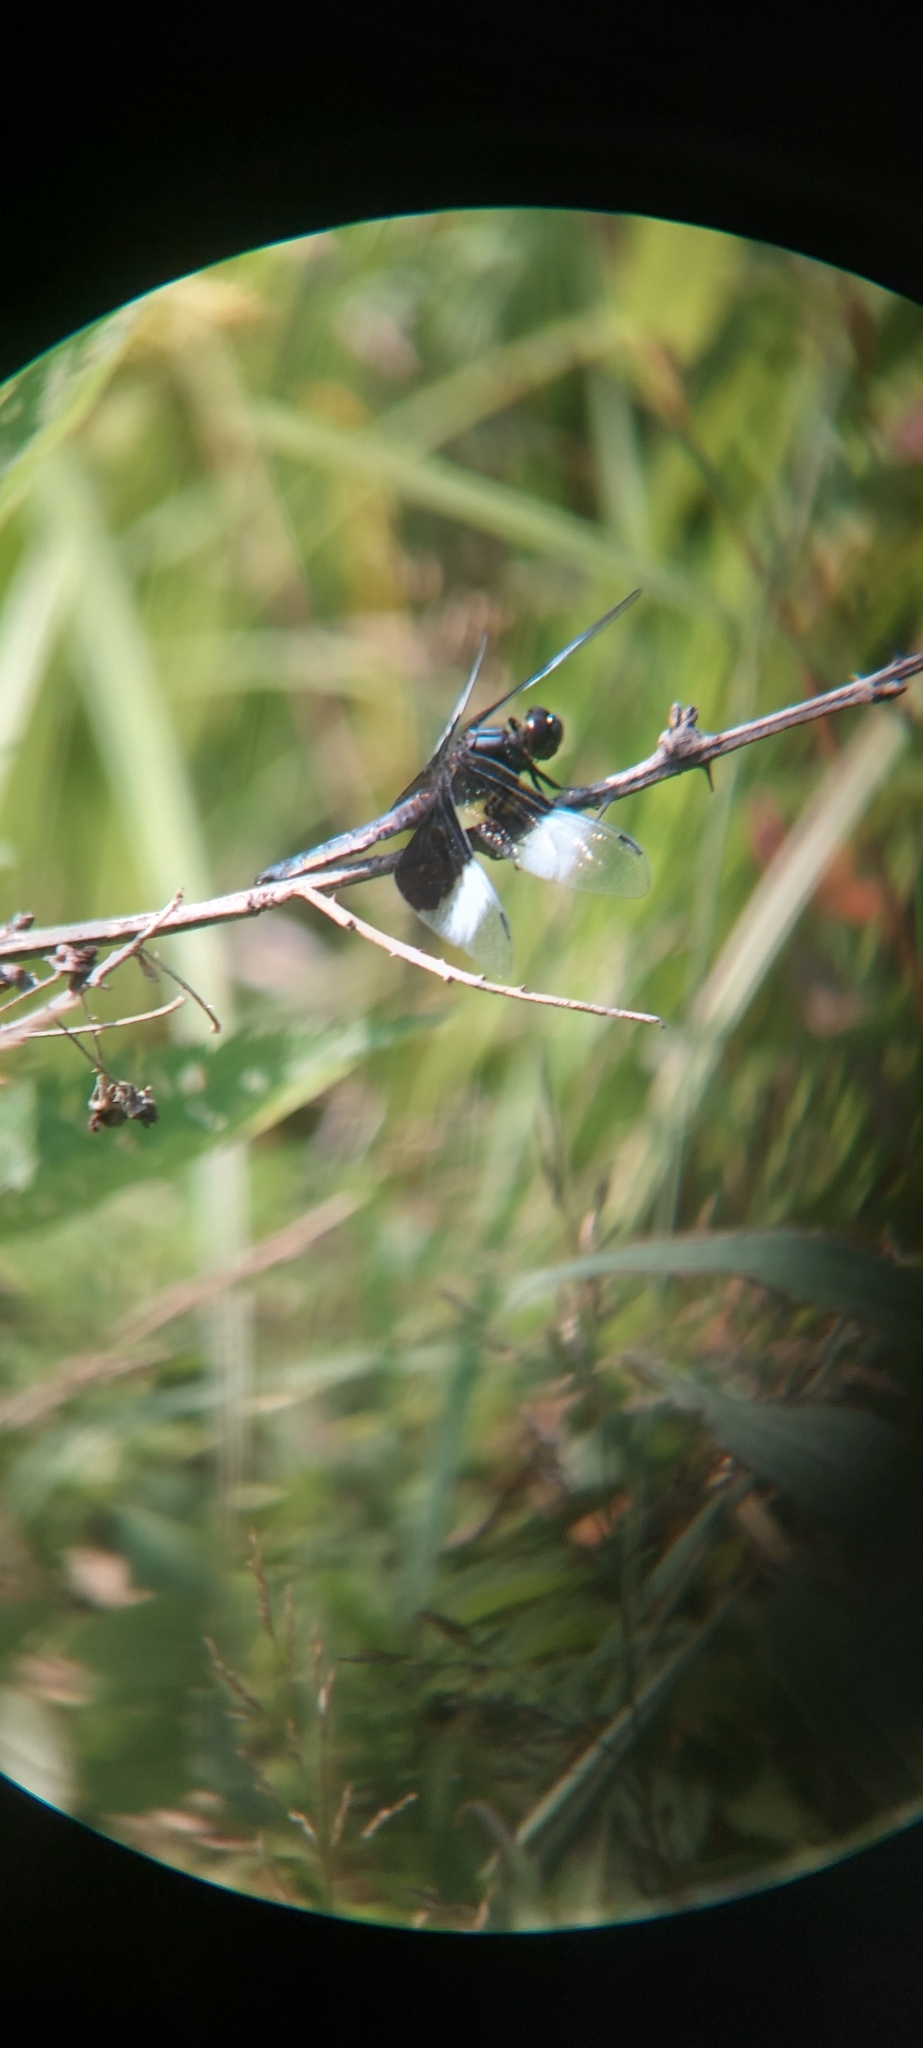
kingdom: Animalia
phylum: Arthropoda
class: Insecta
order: Odonata
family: Libellulidae
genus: Libellula
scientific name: Libellula luctuosa
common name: Widow skimmer
